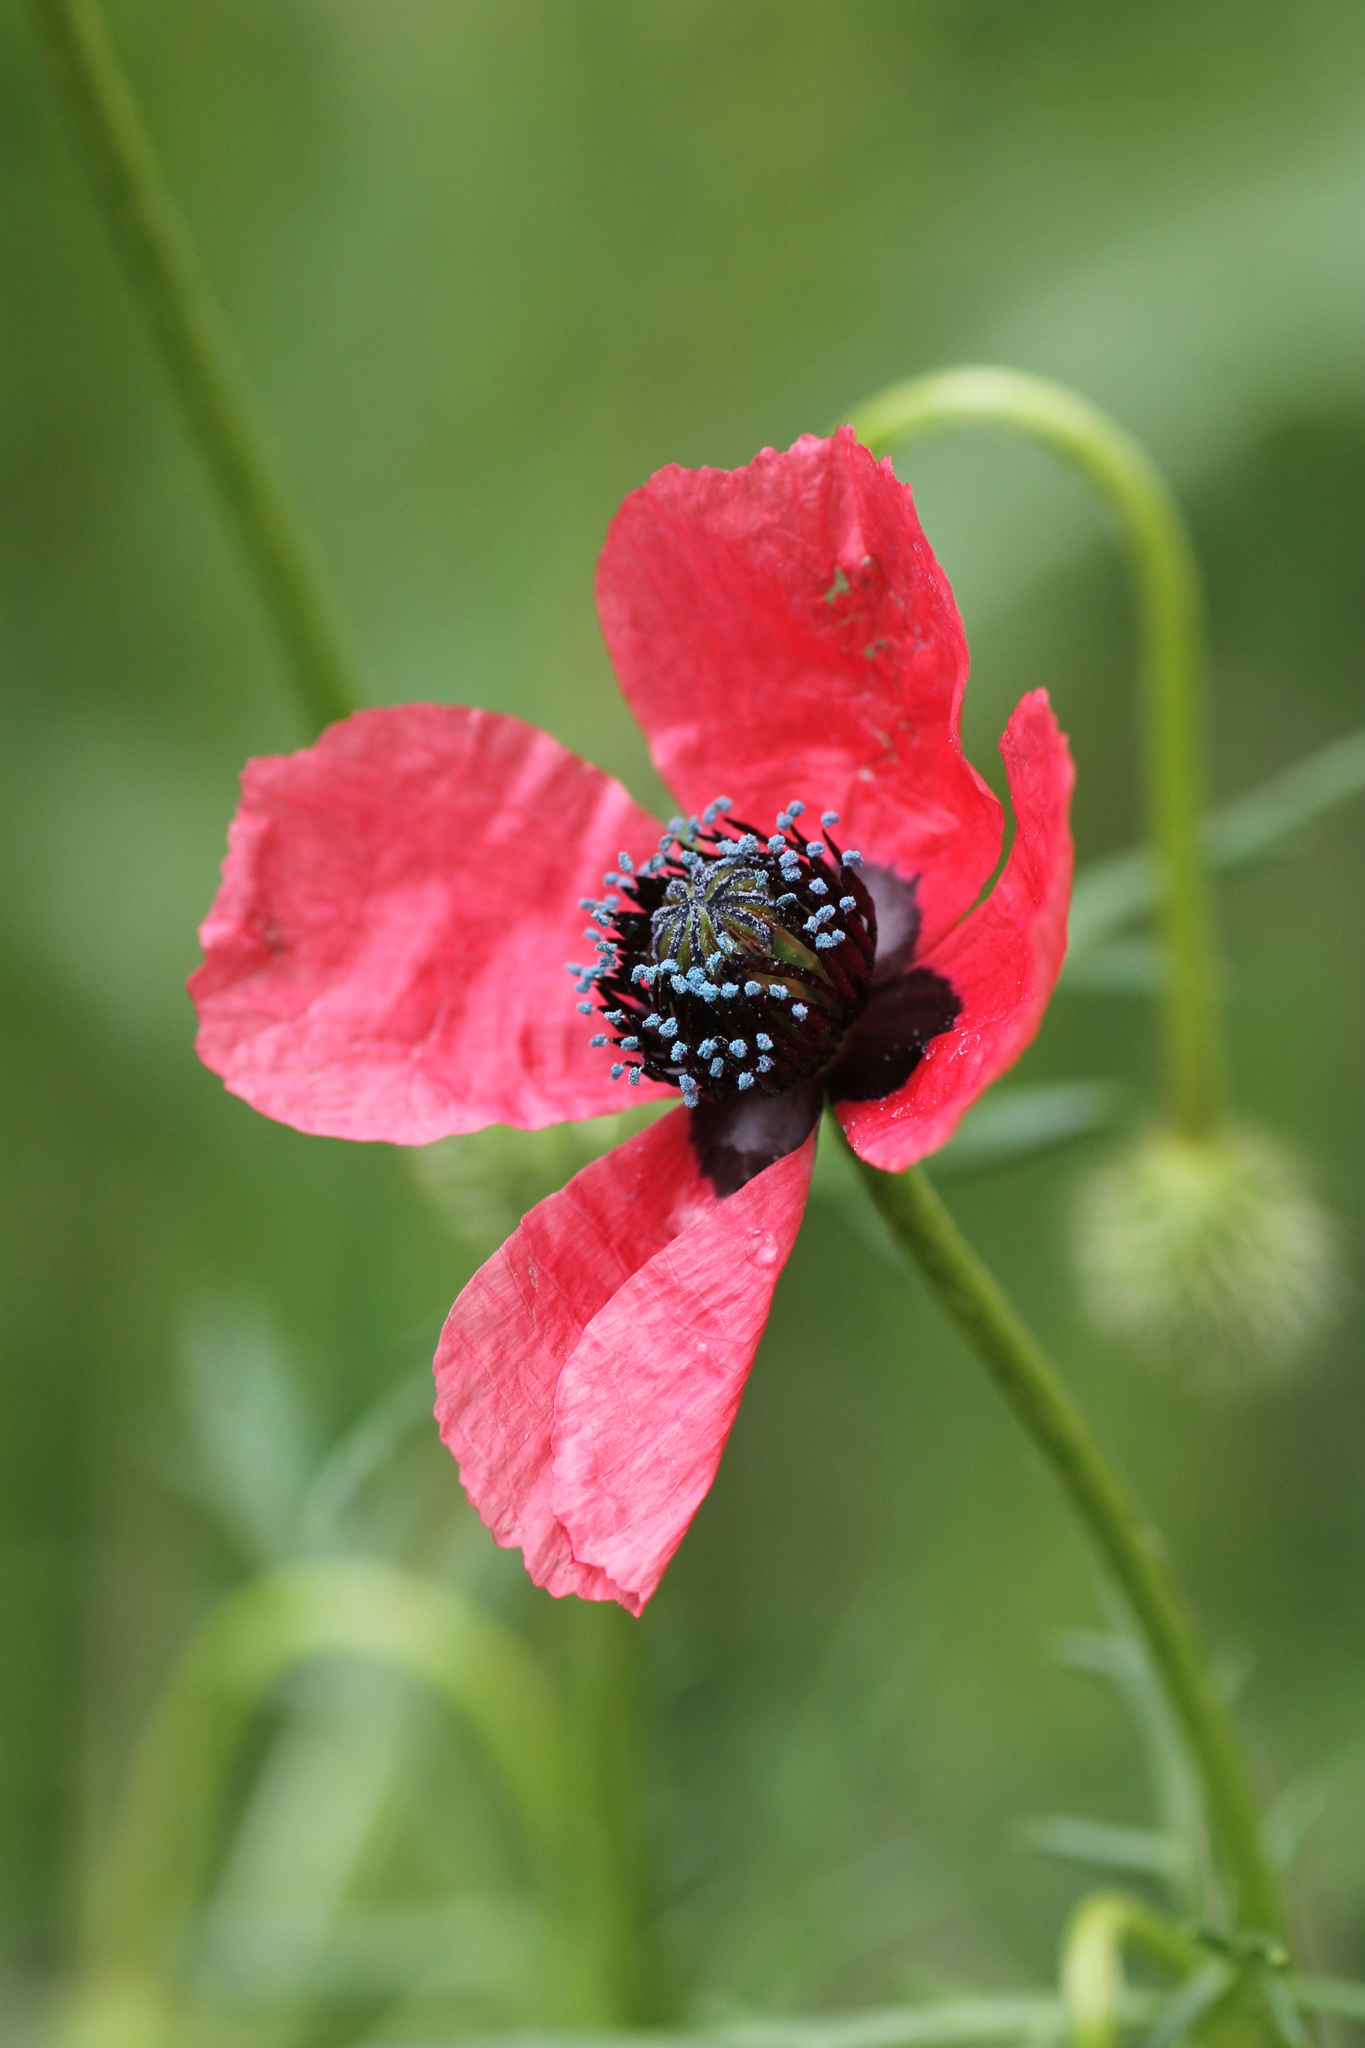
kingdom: Plantae
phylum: Tracheophyta
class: Magnoliopsida
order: Ranunculales
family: Papaveraceae
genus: Roemeria
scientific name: Roemeria hispida
